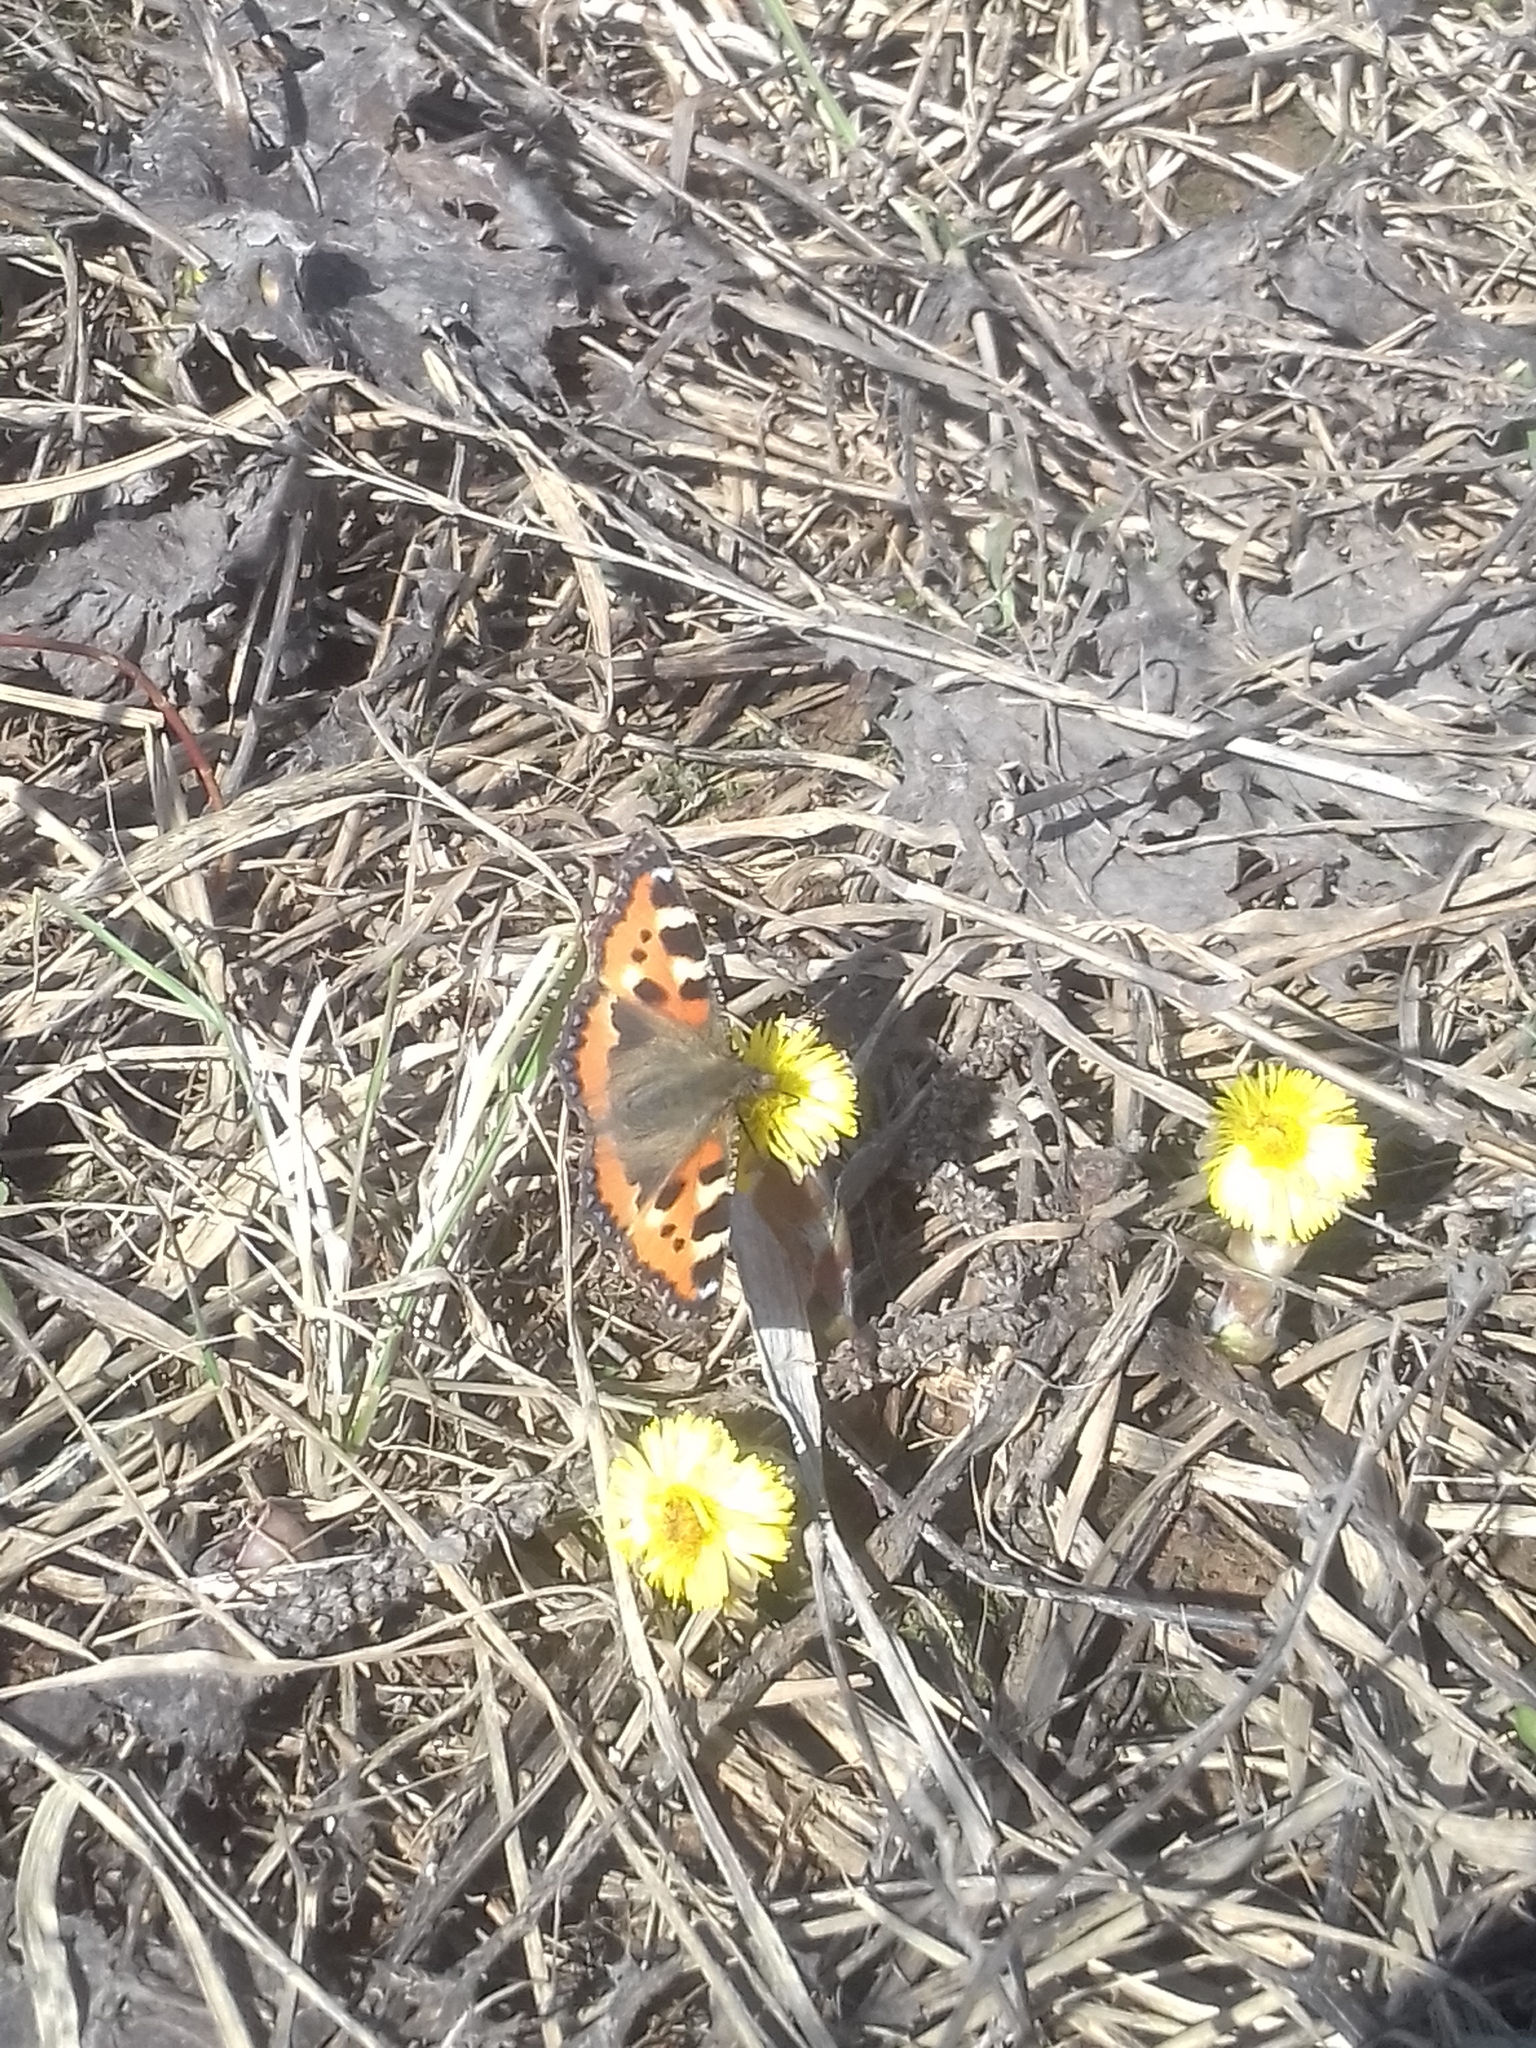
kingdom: Animalia
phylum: Arthropoda
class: Insecta
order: Lepidoptera
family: Nymphalidae
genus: Aglais
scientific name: Aglais urticae
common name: Small tortoiseshell
